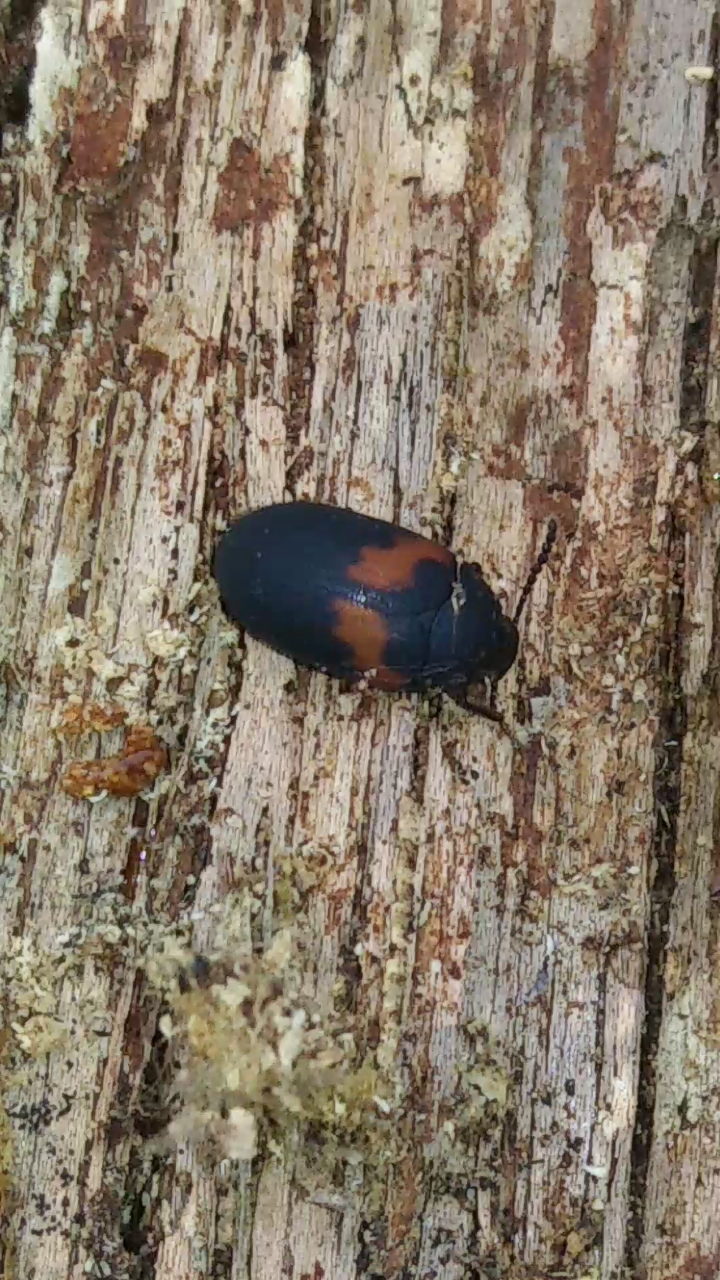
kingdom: Animalia
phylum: Arthropoda
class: Insecta
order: Coleoptera
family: Tenebrionidae
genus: Platydema
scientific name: Platydema elliptica
